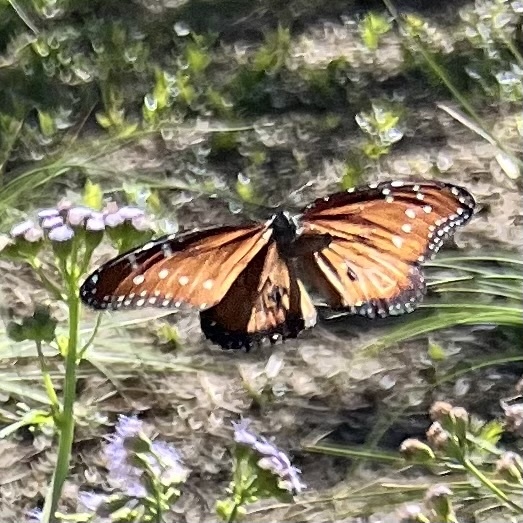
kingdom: Animalia
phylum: Arthropoda
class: Insecta
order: Lepidoptera
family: Nymphalidae
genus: Danaus
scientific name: Danaus gilippus
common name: Queen
